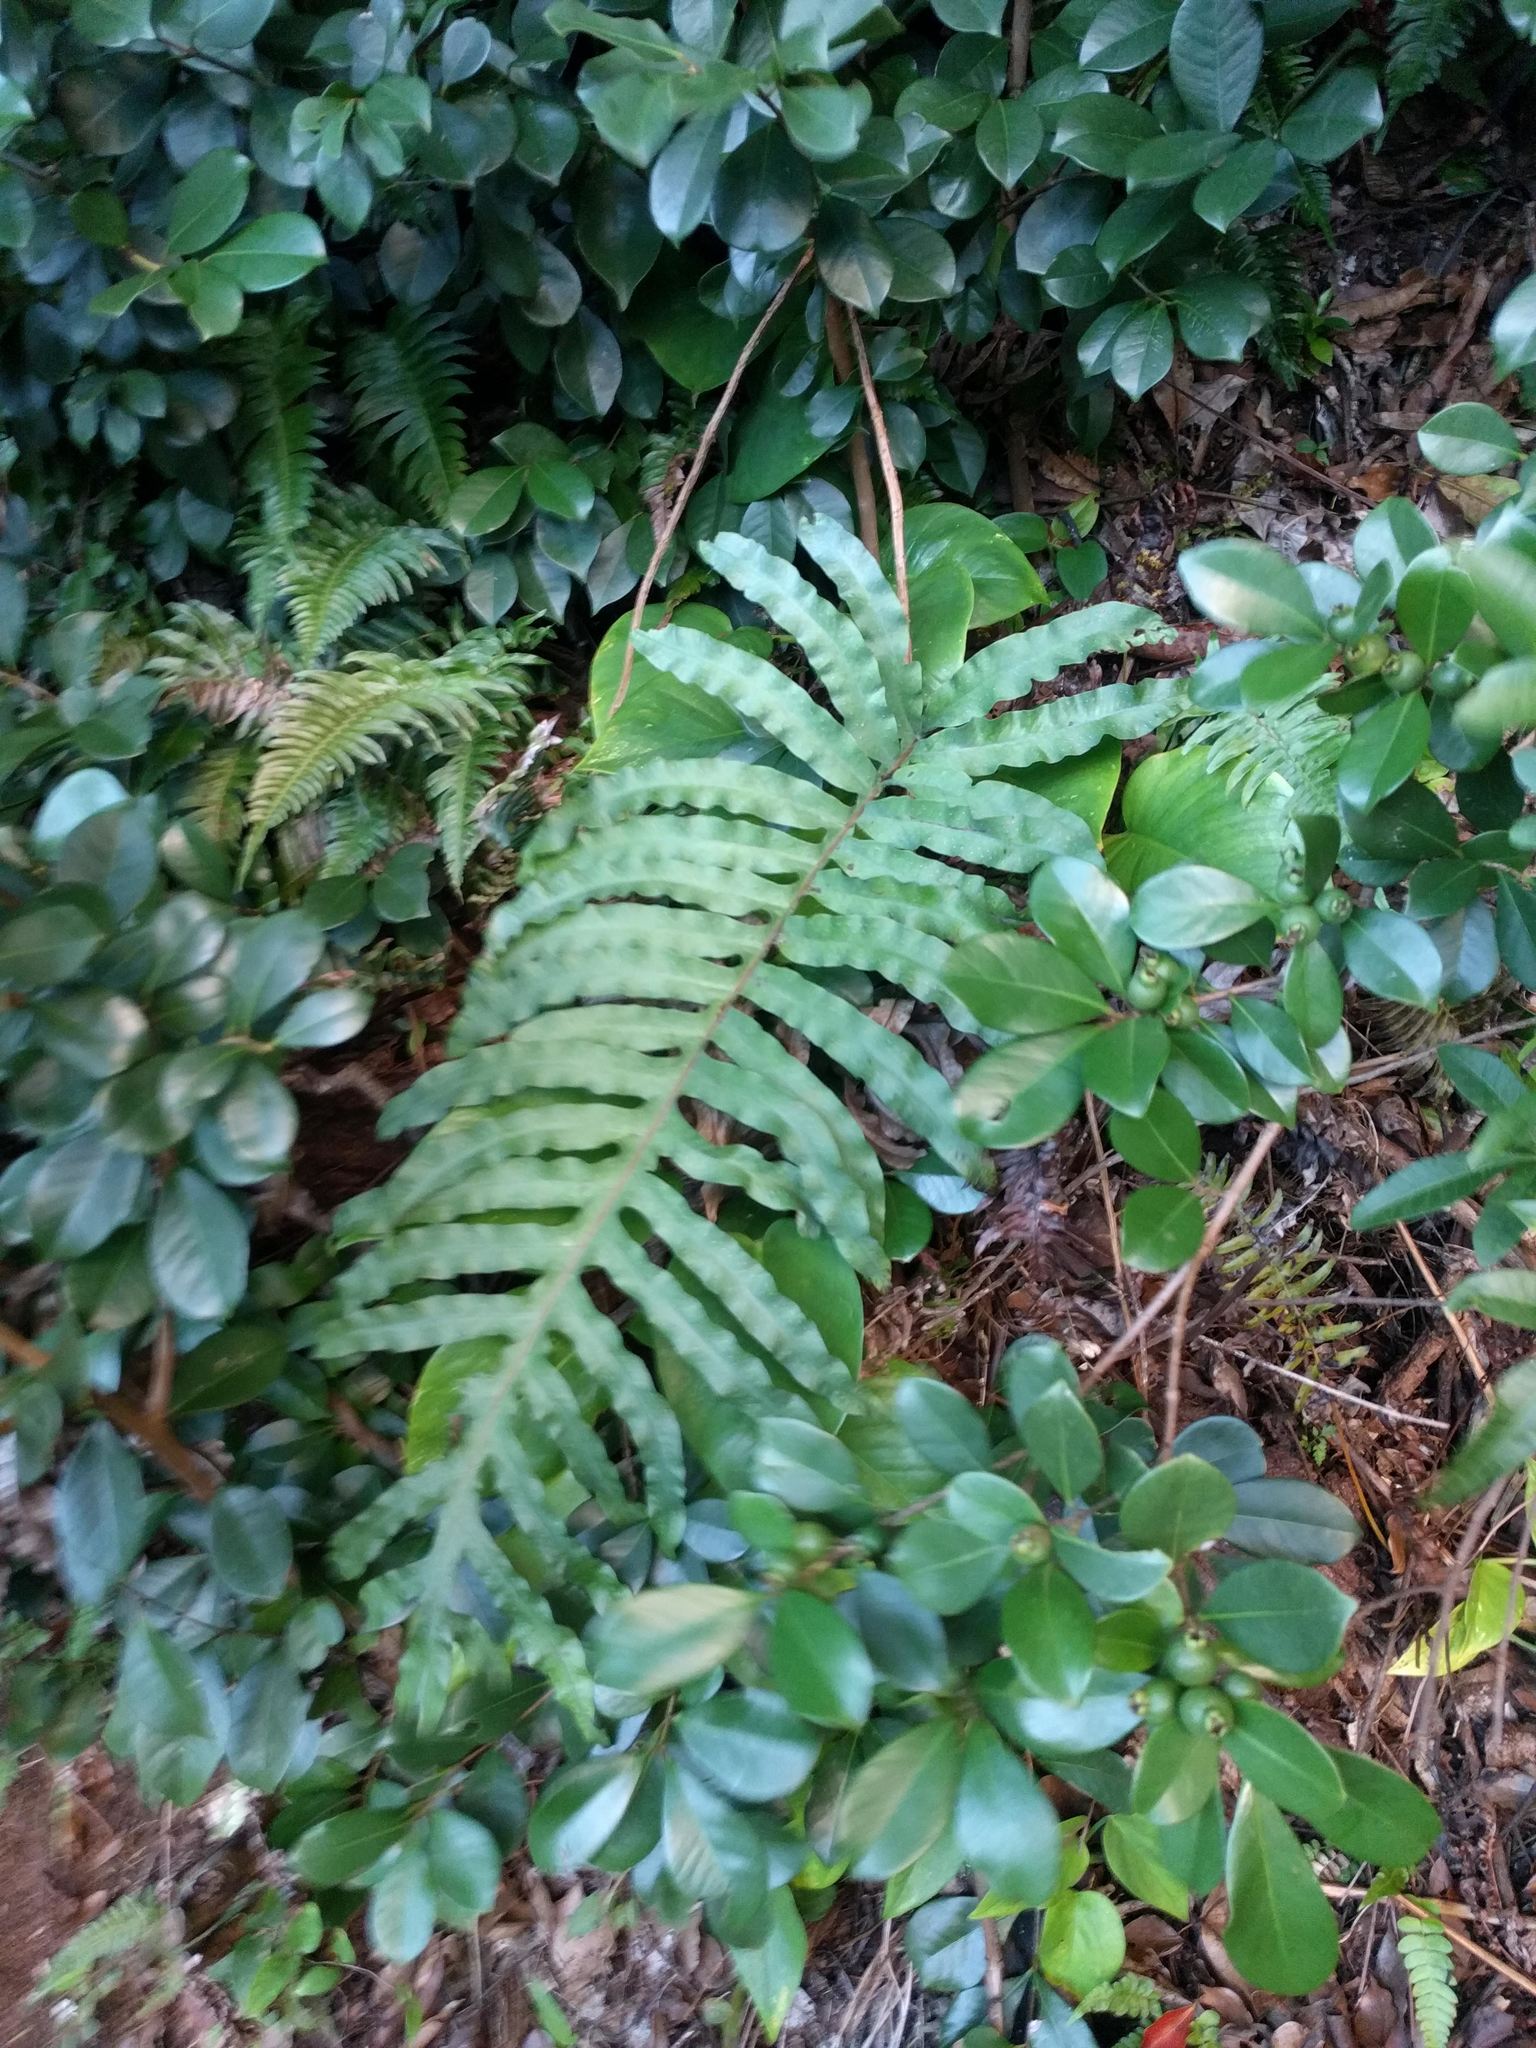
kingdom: Plantae
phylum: Tracheophyta
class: Polypodiopsida
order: Polypodiales
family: Polypodiaceae
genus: Phlebodium
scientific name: Phlebodium aureum
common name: Gold-foot fern
